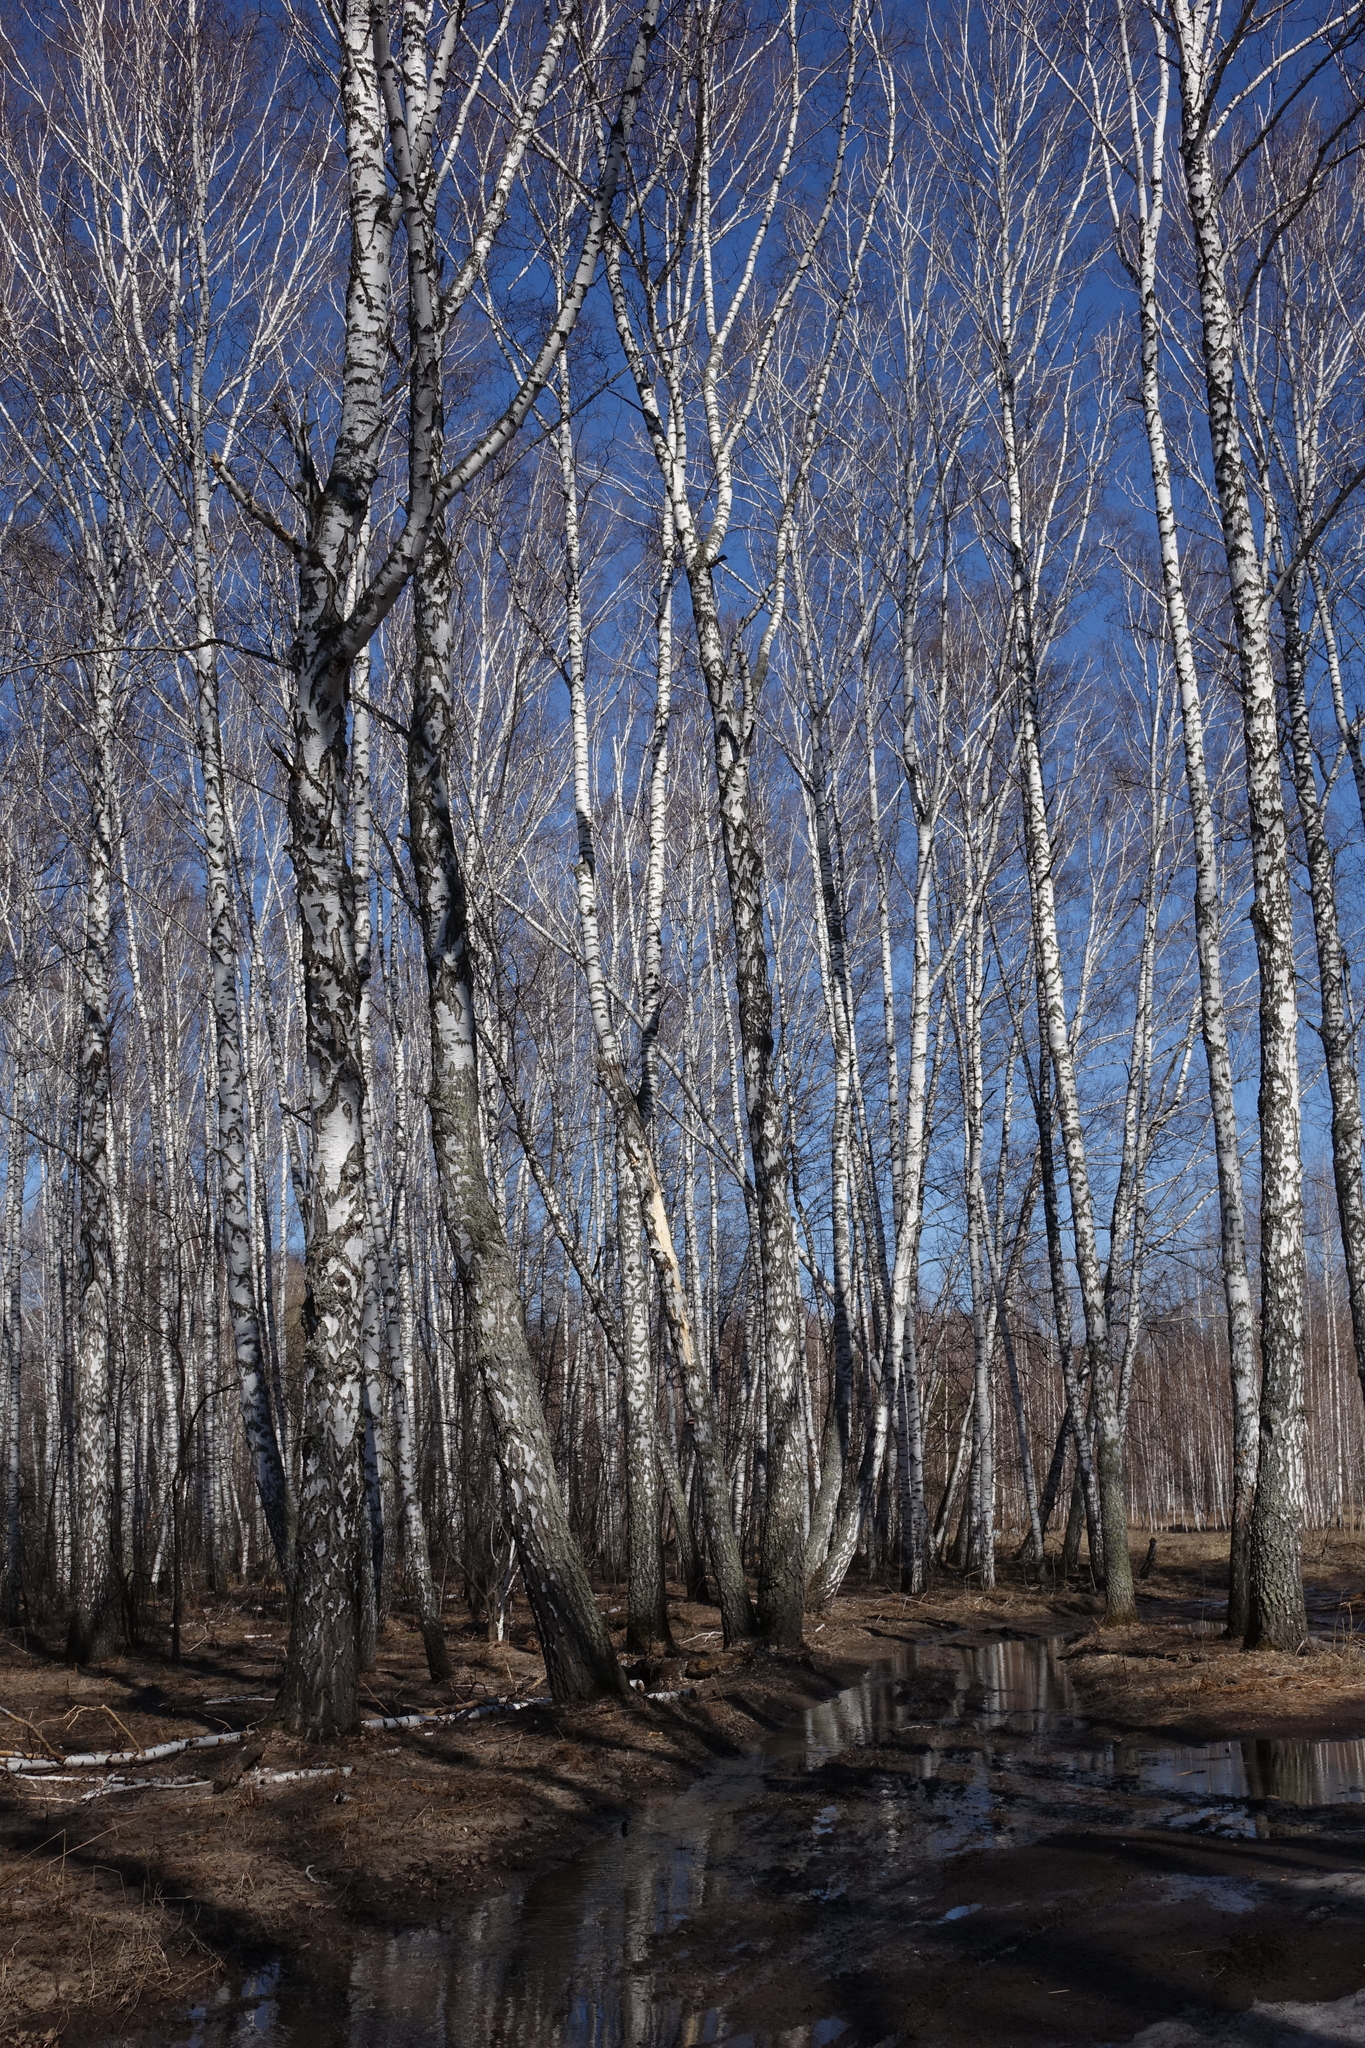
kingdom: Plantae
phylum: Tracheophyta
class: Magnoliopsida
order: Fagales
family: Betulaceae
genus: Betula
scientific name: Betula pendula
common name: Silver birch
